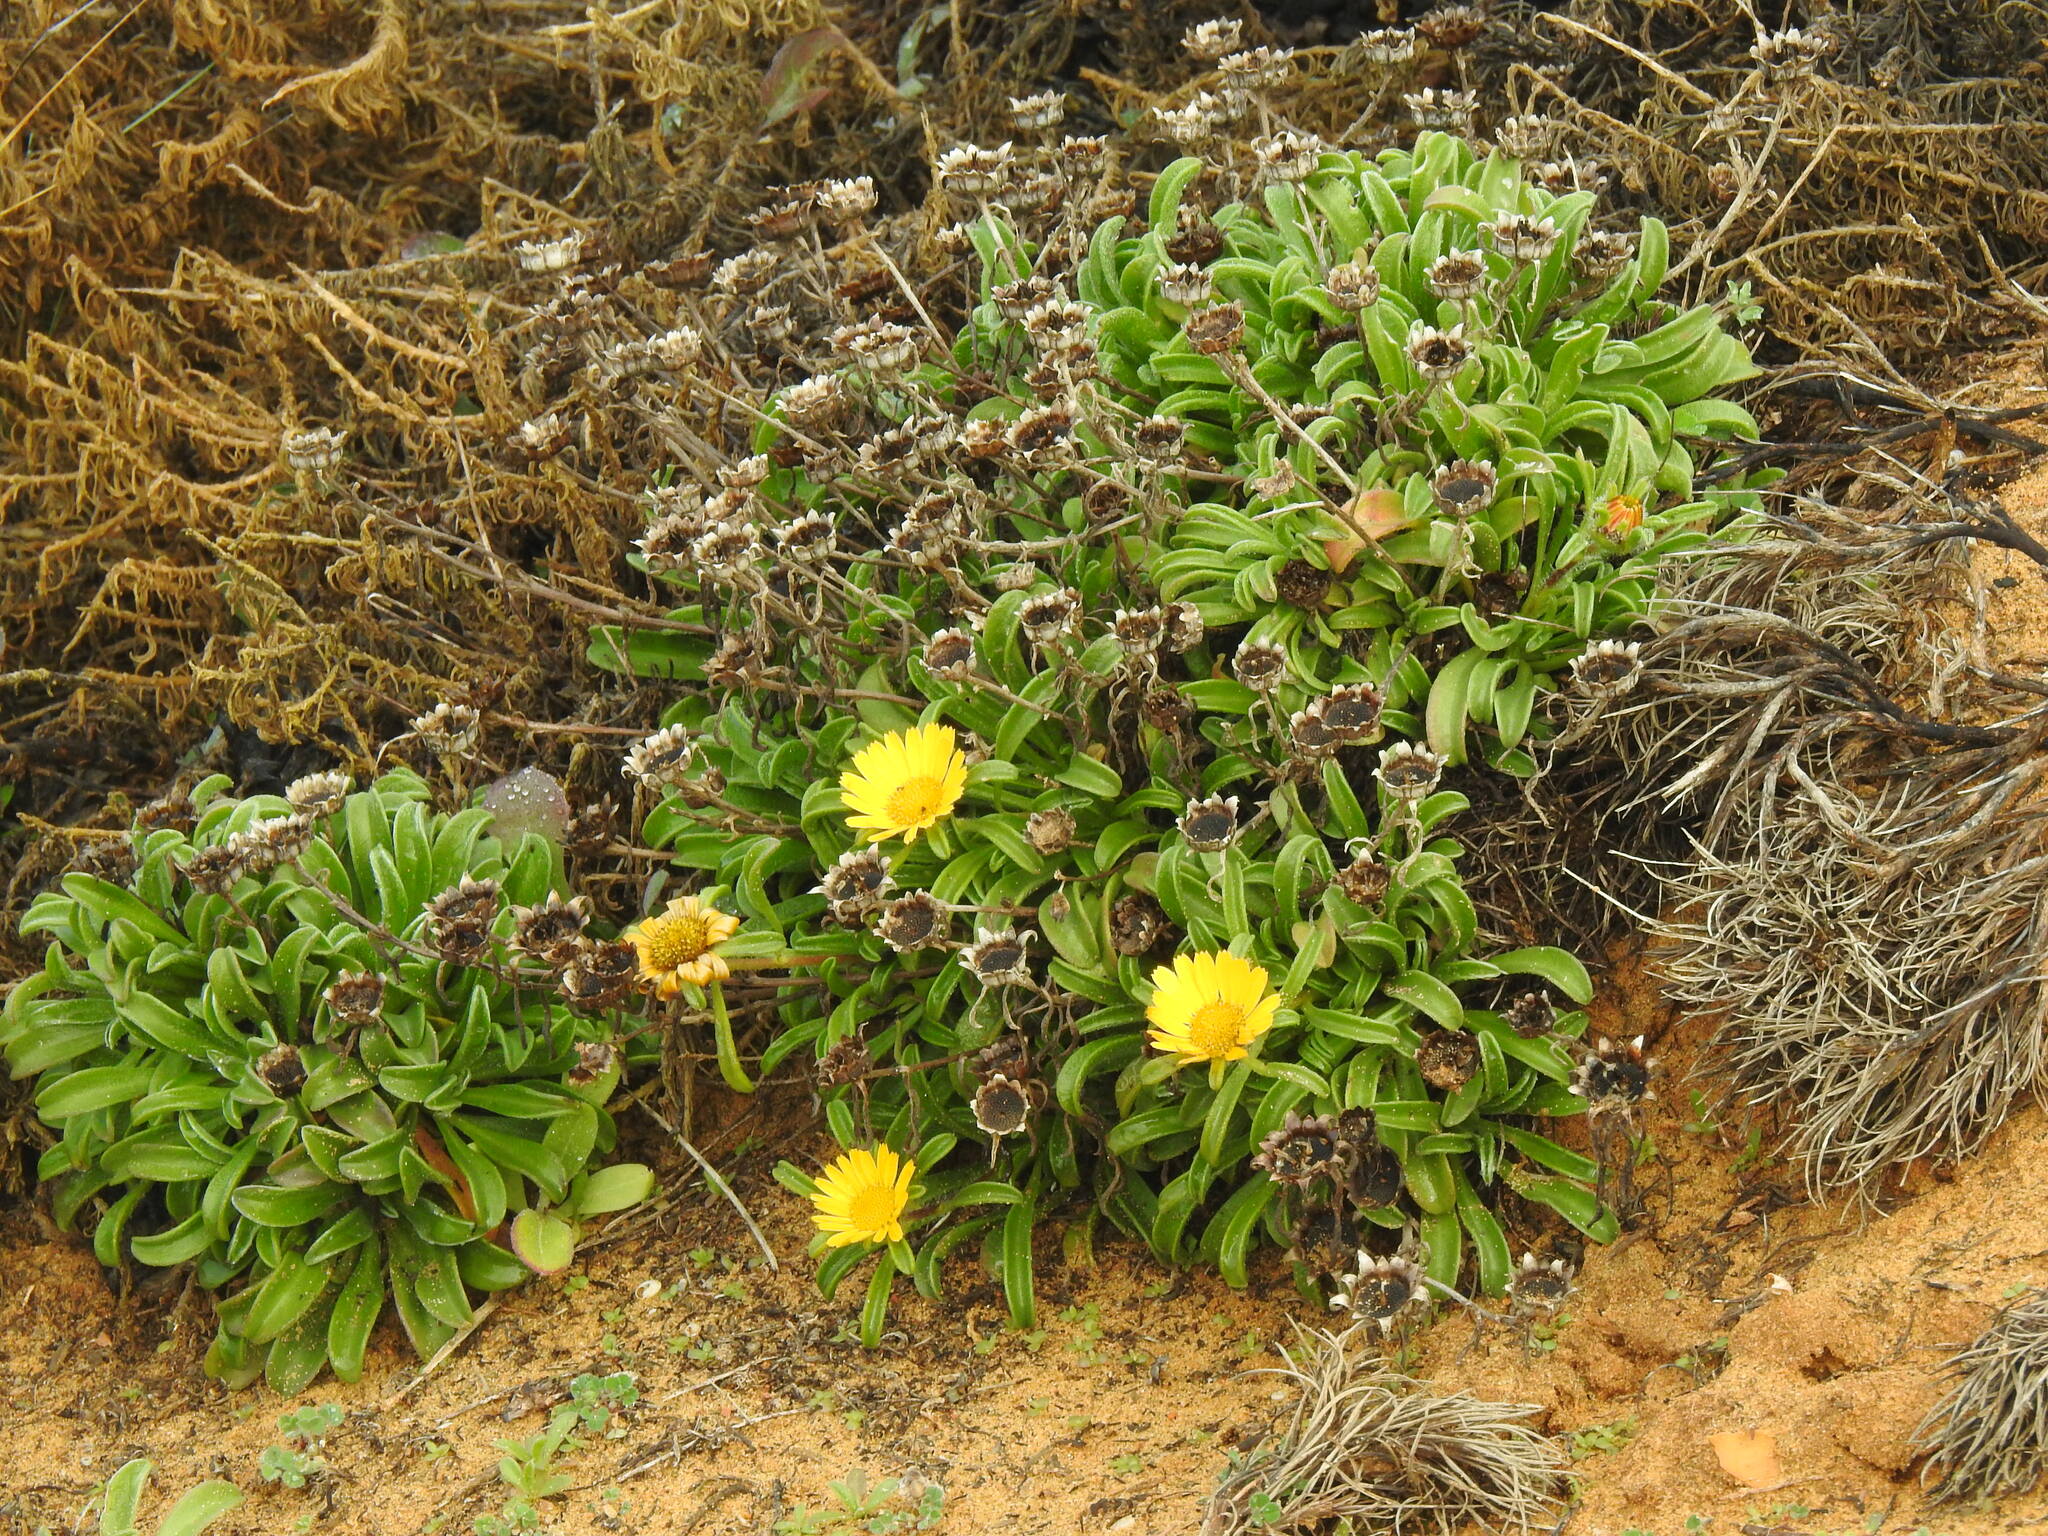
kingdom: Plantae
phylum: Tracheophyta
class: Magnoliopsida
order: Asterales
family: Asteraceae
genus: Pallenis
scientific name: Pallenis maritima
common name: Golden coin daisy
